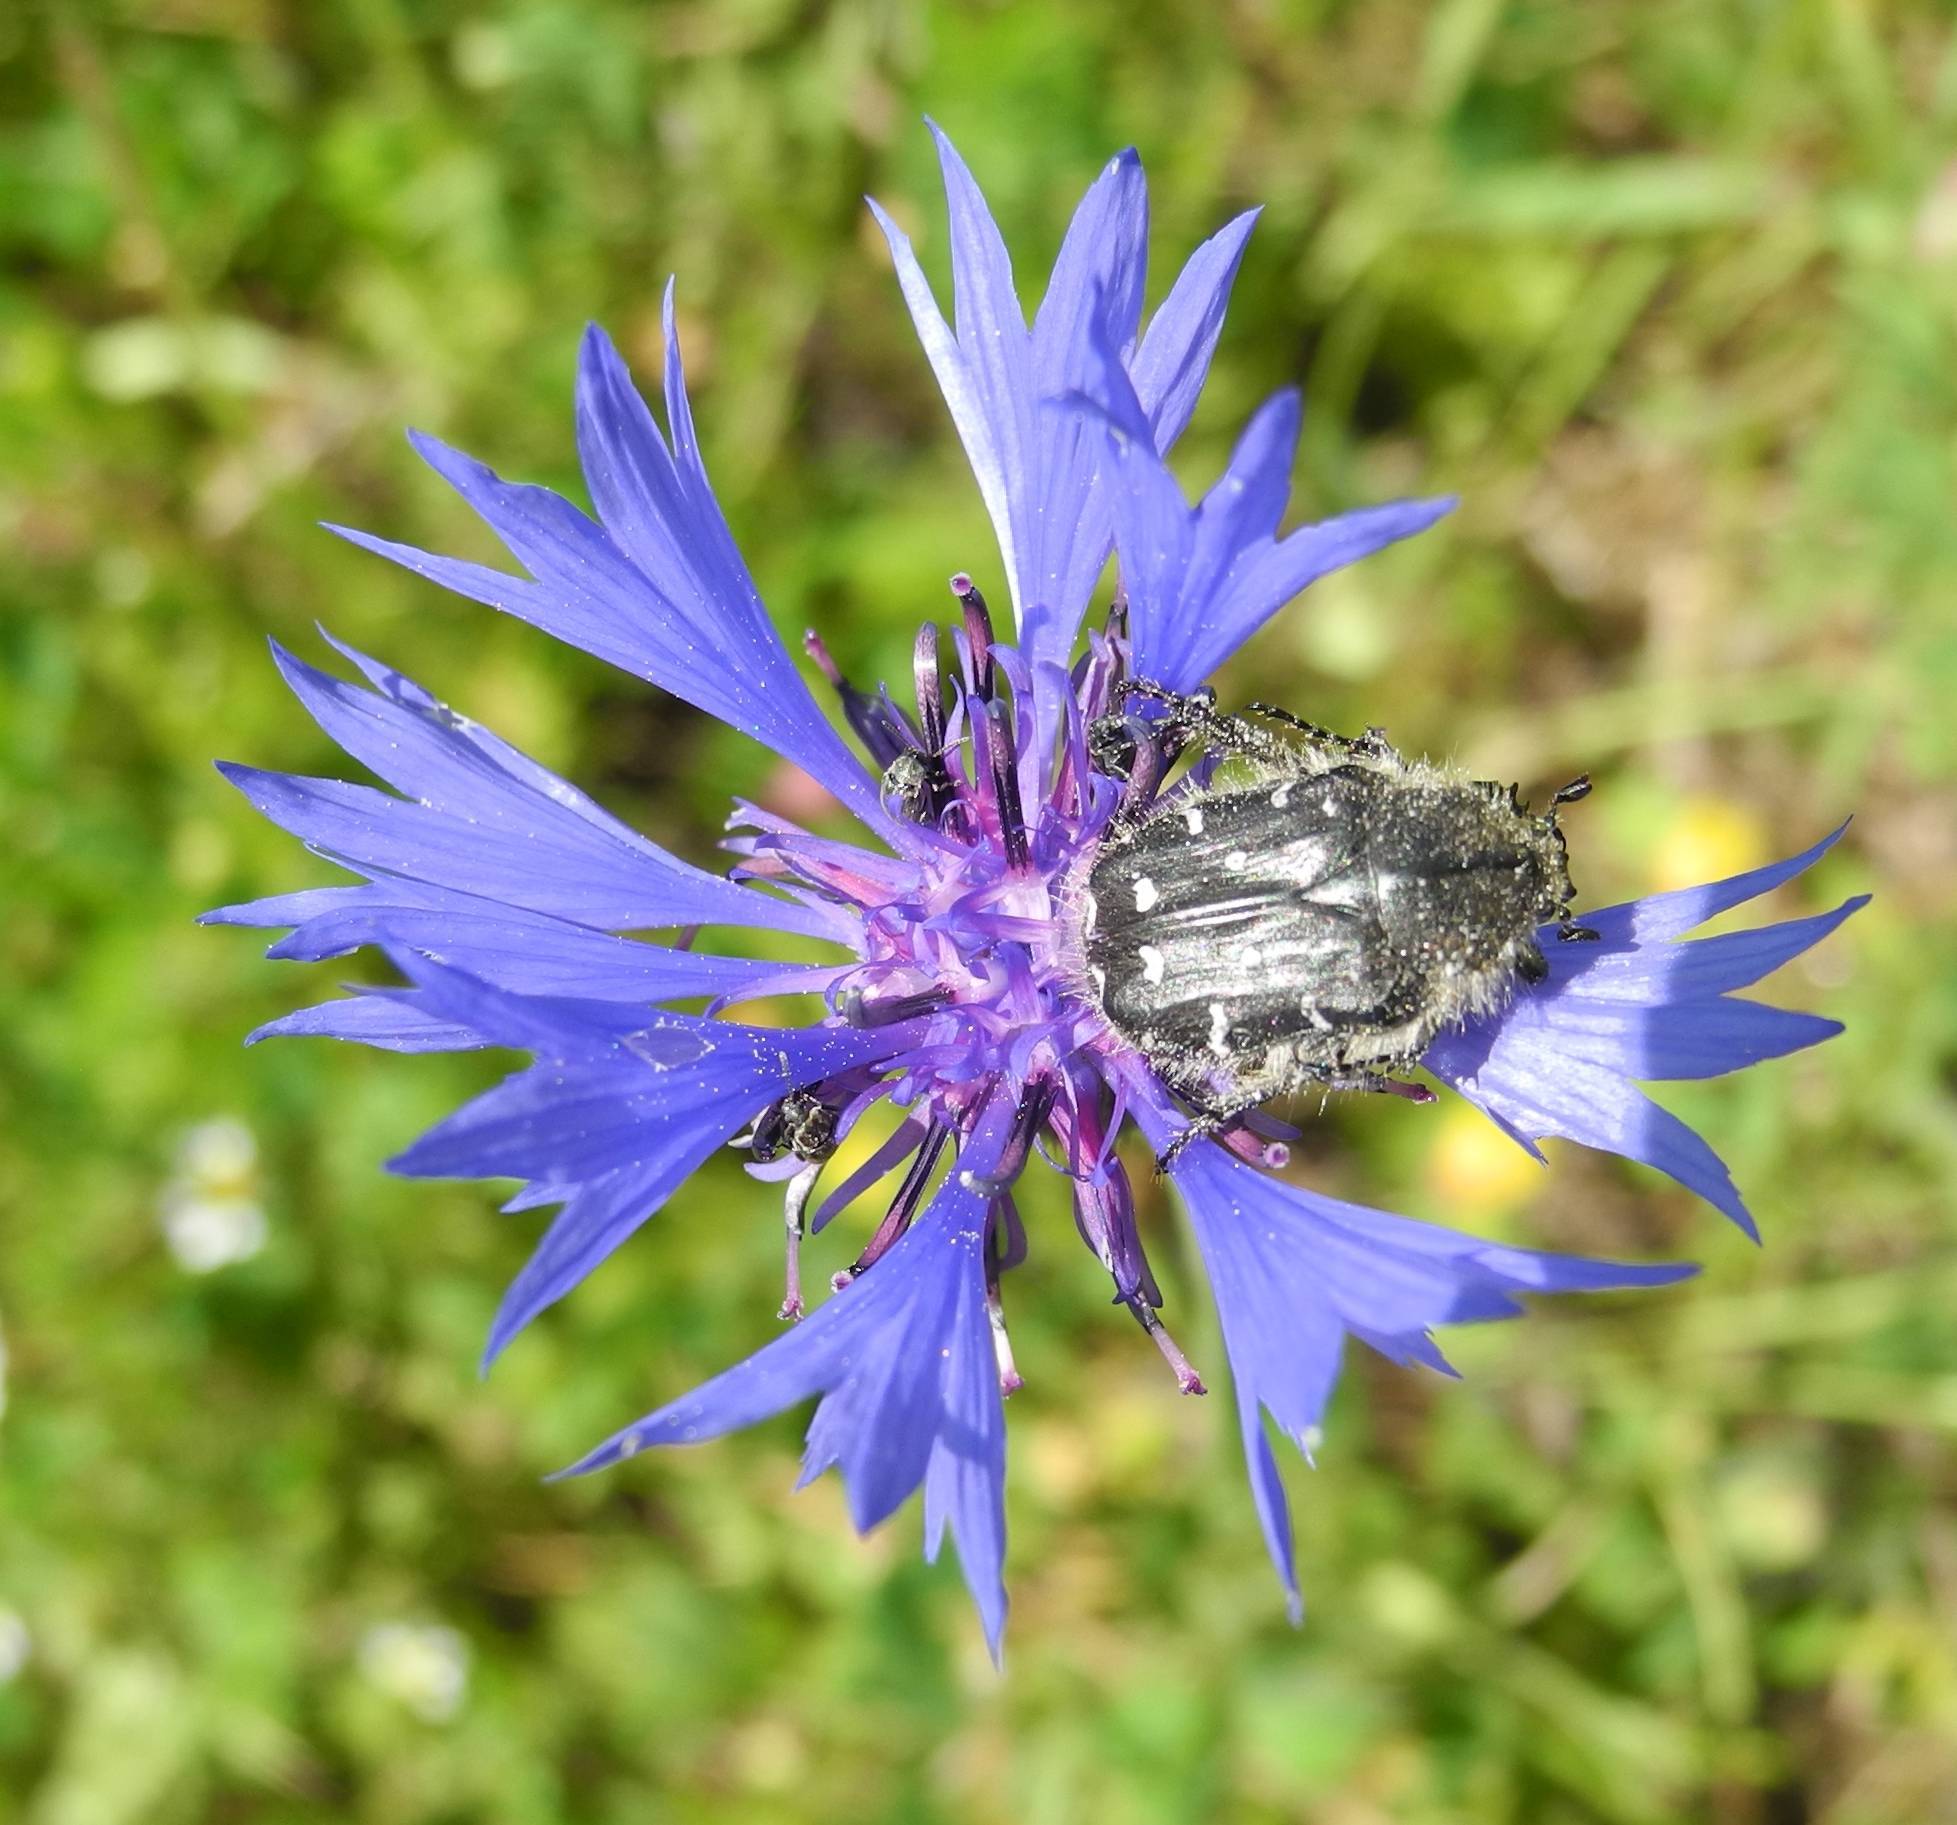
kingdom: Animalia
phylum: Arthropoda
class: Insecta
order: Coleoptera
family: Scarabaeidae
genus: Tropinota
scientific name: Tropinota hirta
